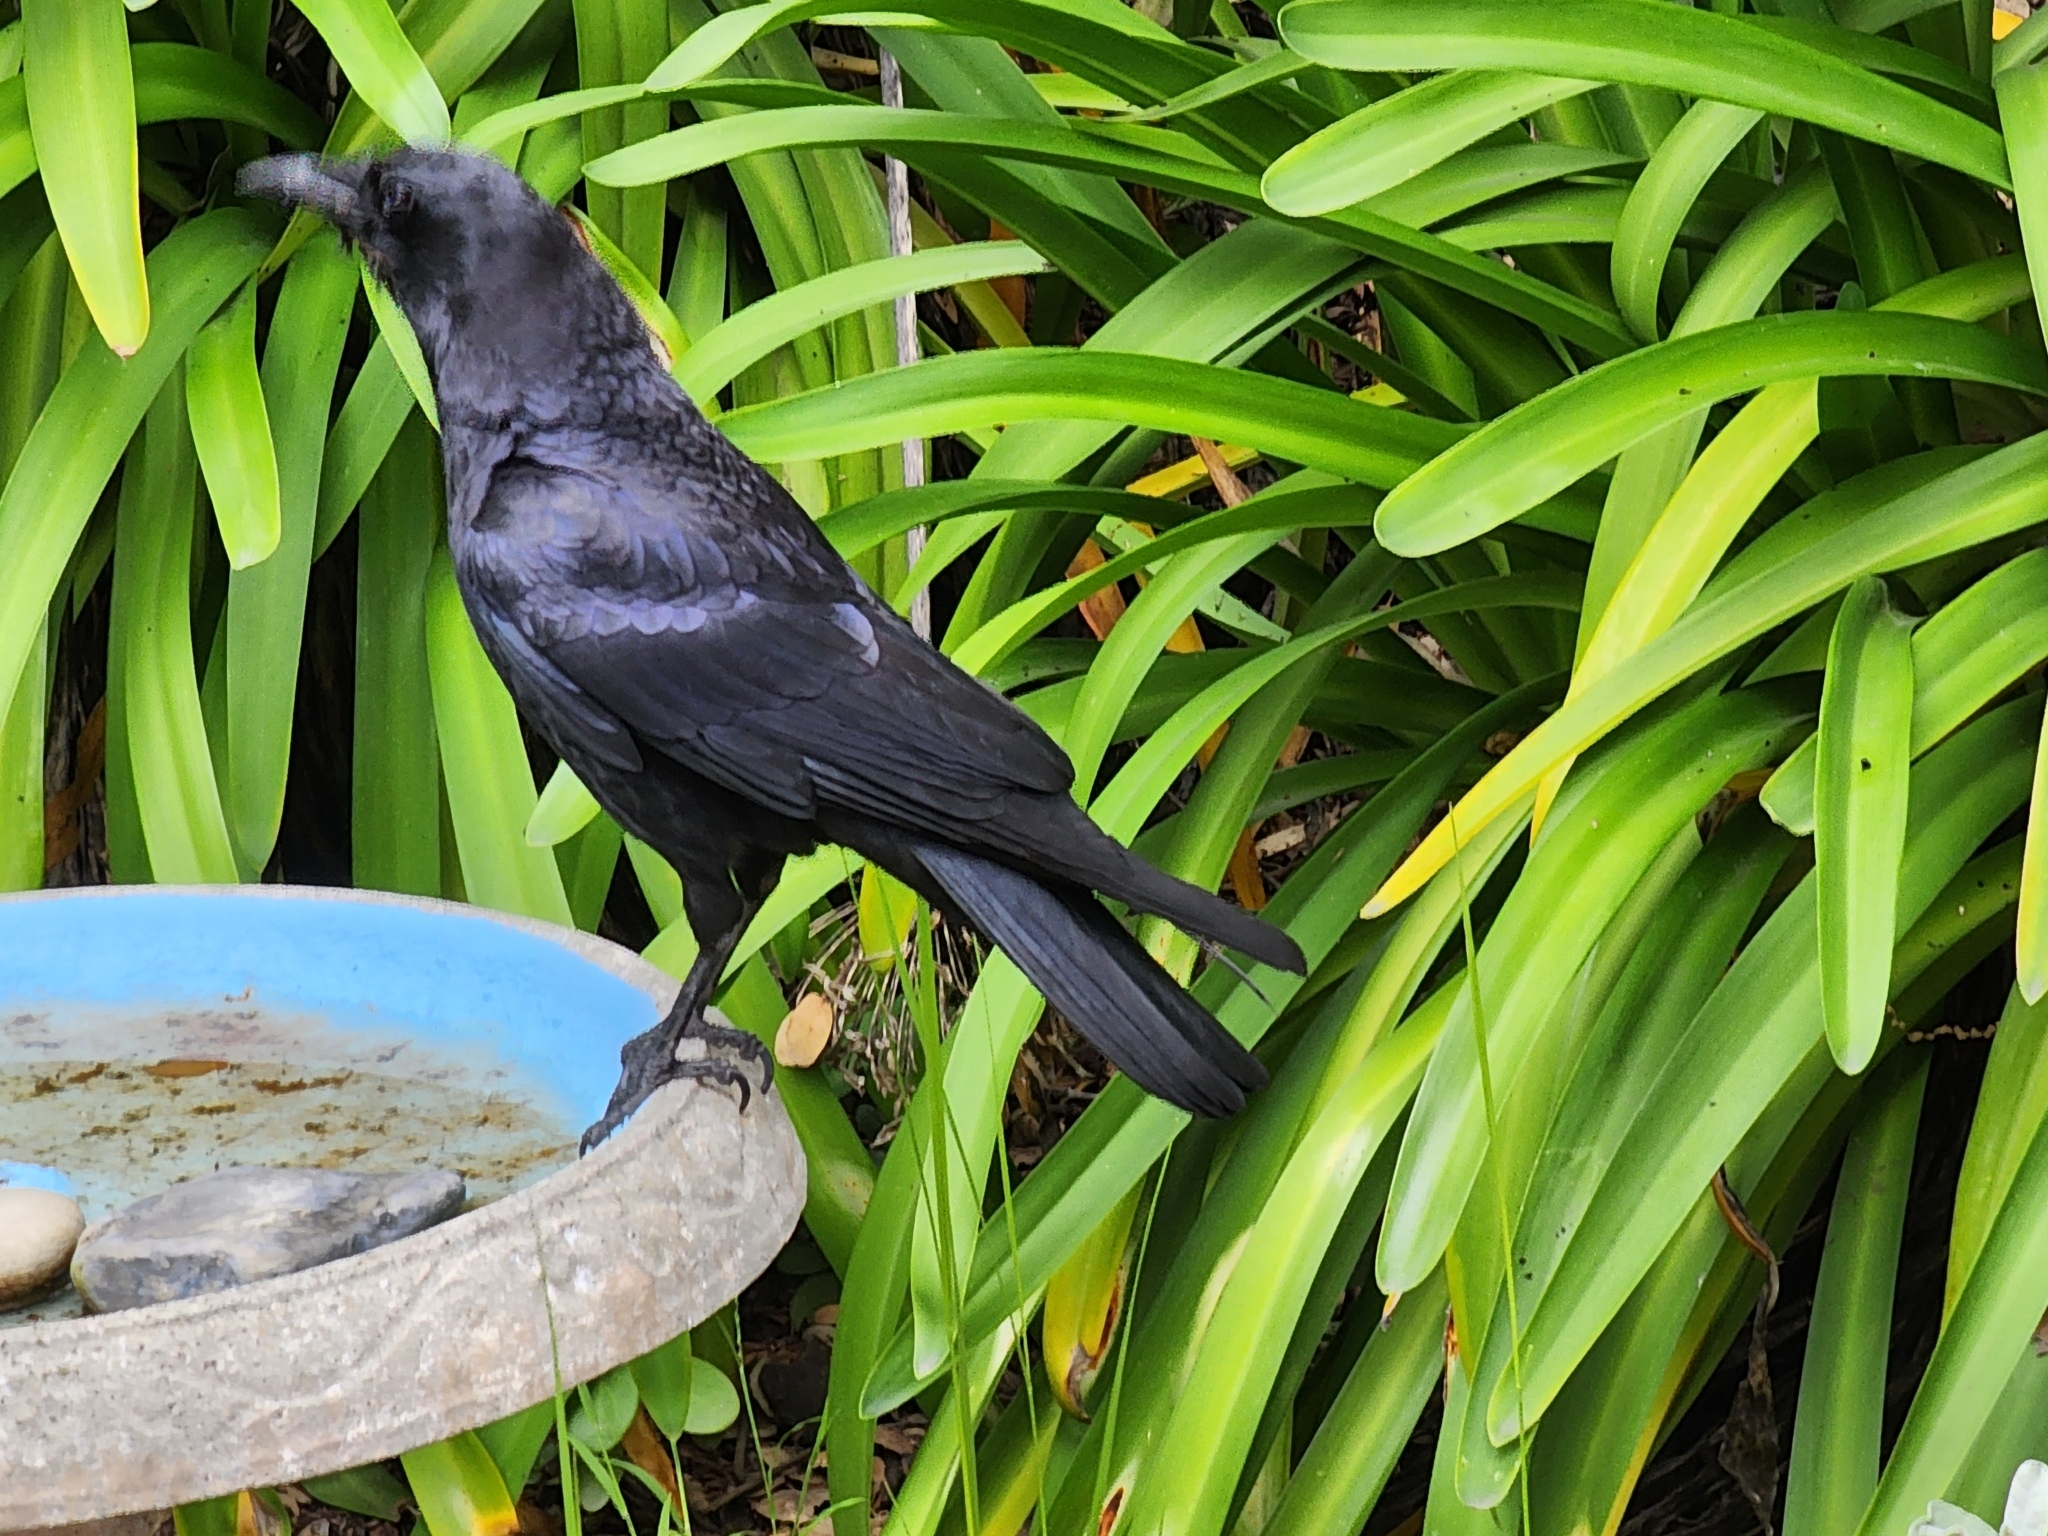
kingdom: Animalia
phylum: Chordata
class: Aves
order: Passeriformes
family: Corvidae
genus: Corvus
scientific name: Corvus brachyrhynchos
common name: American crow
